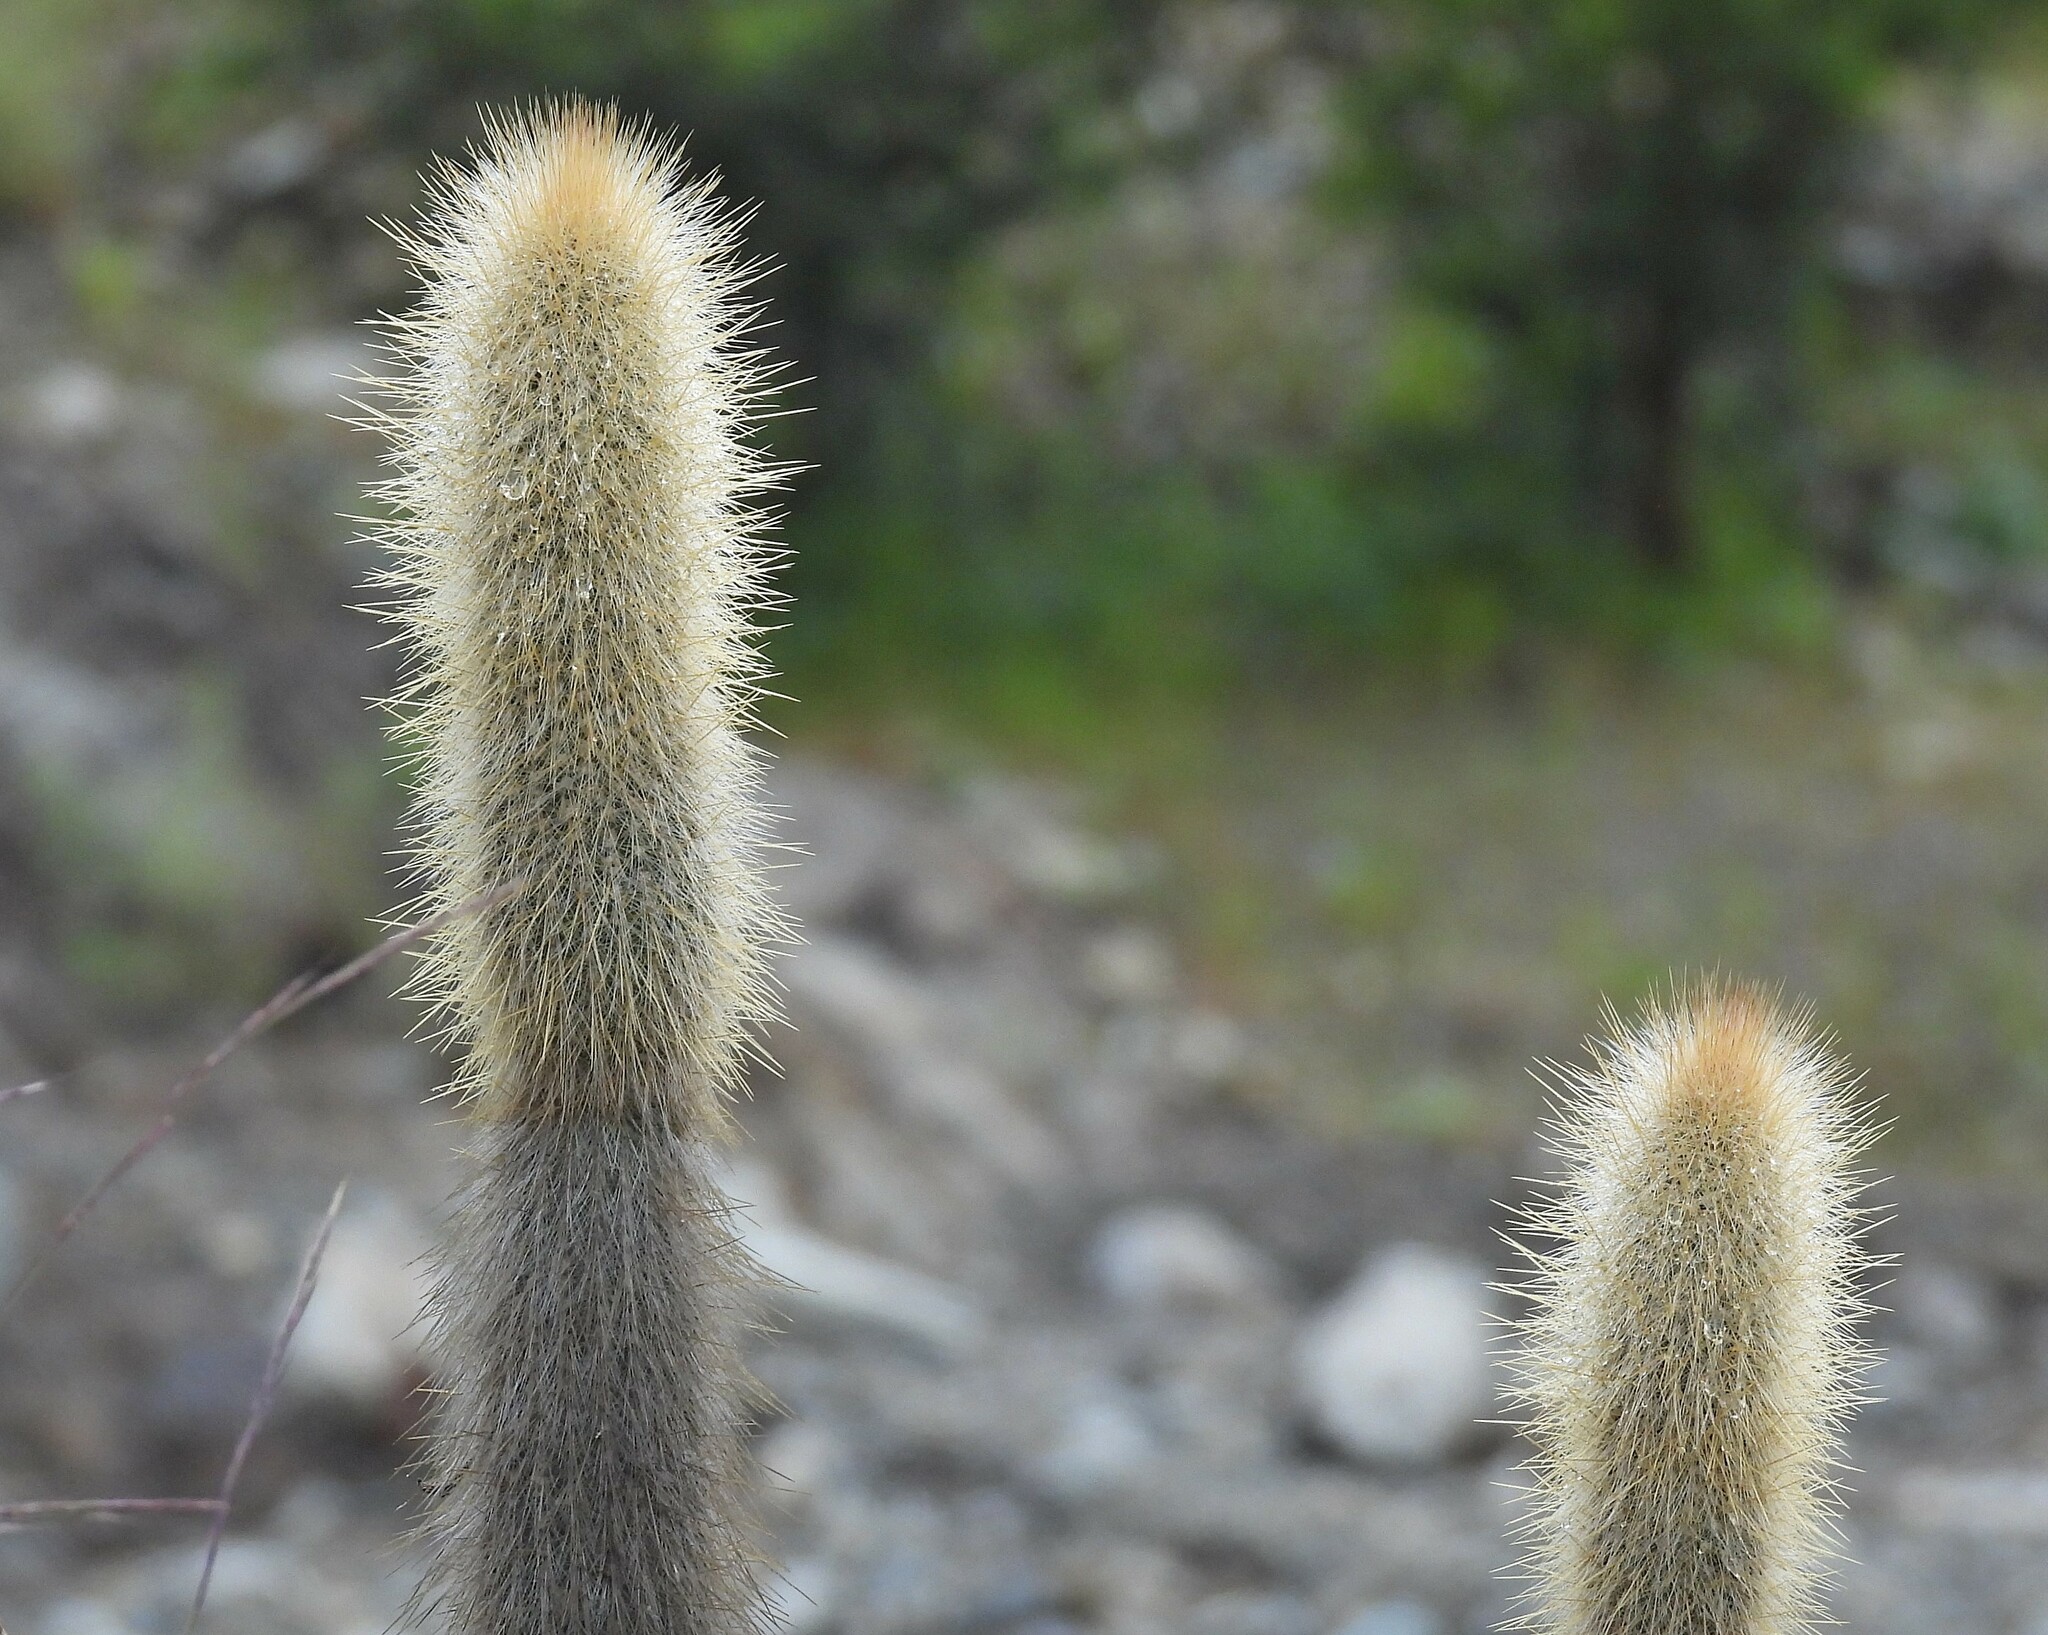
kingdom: Plantae
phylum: Tracheophyta
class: Magnoliopsida
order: Caryophyllales
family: Cactaceae
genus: Cleistocactus
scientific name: Cleistocactus hyalacanthus
